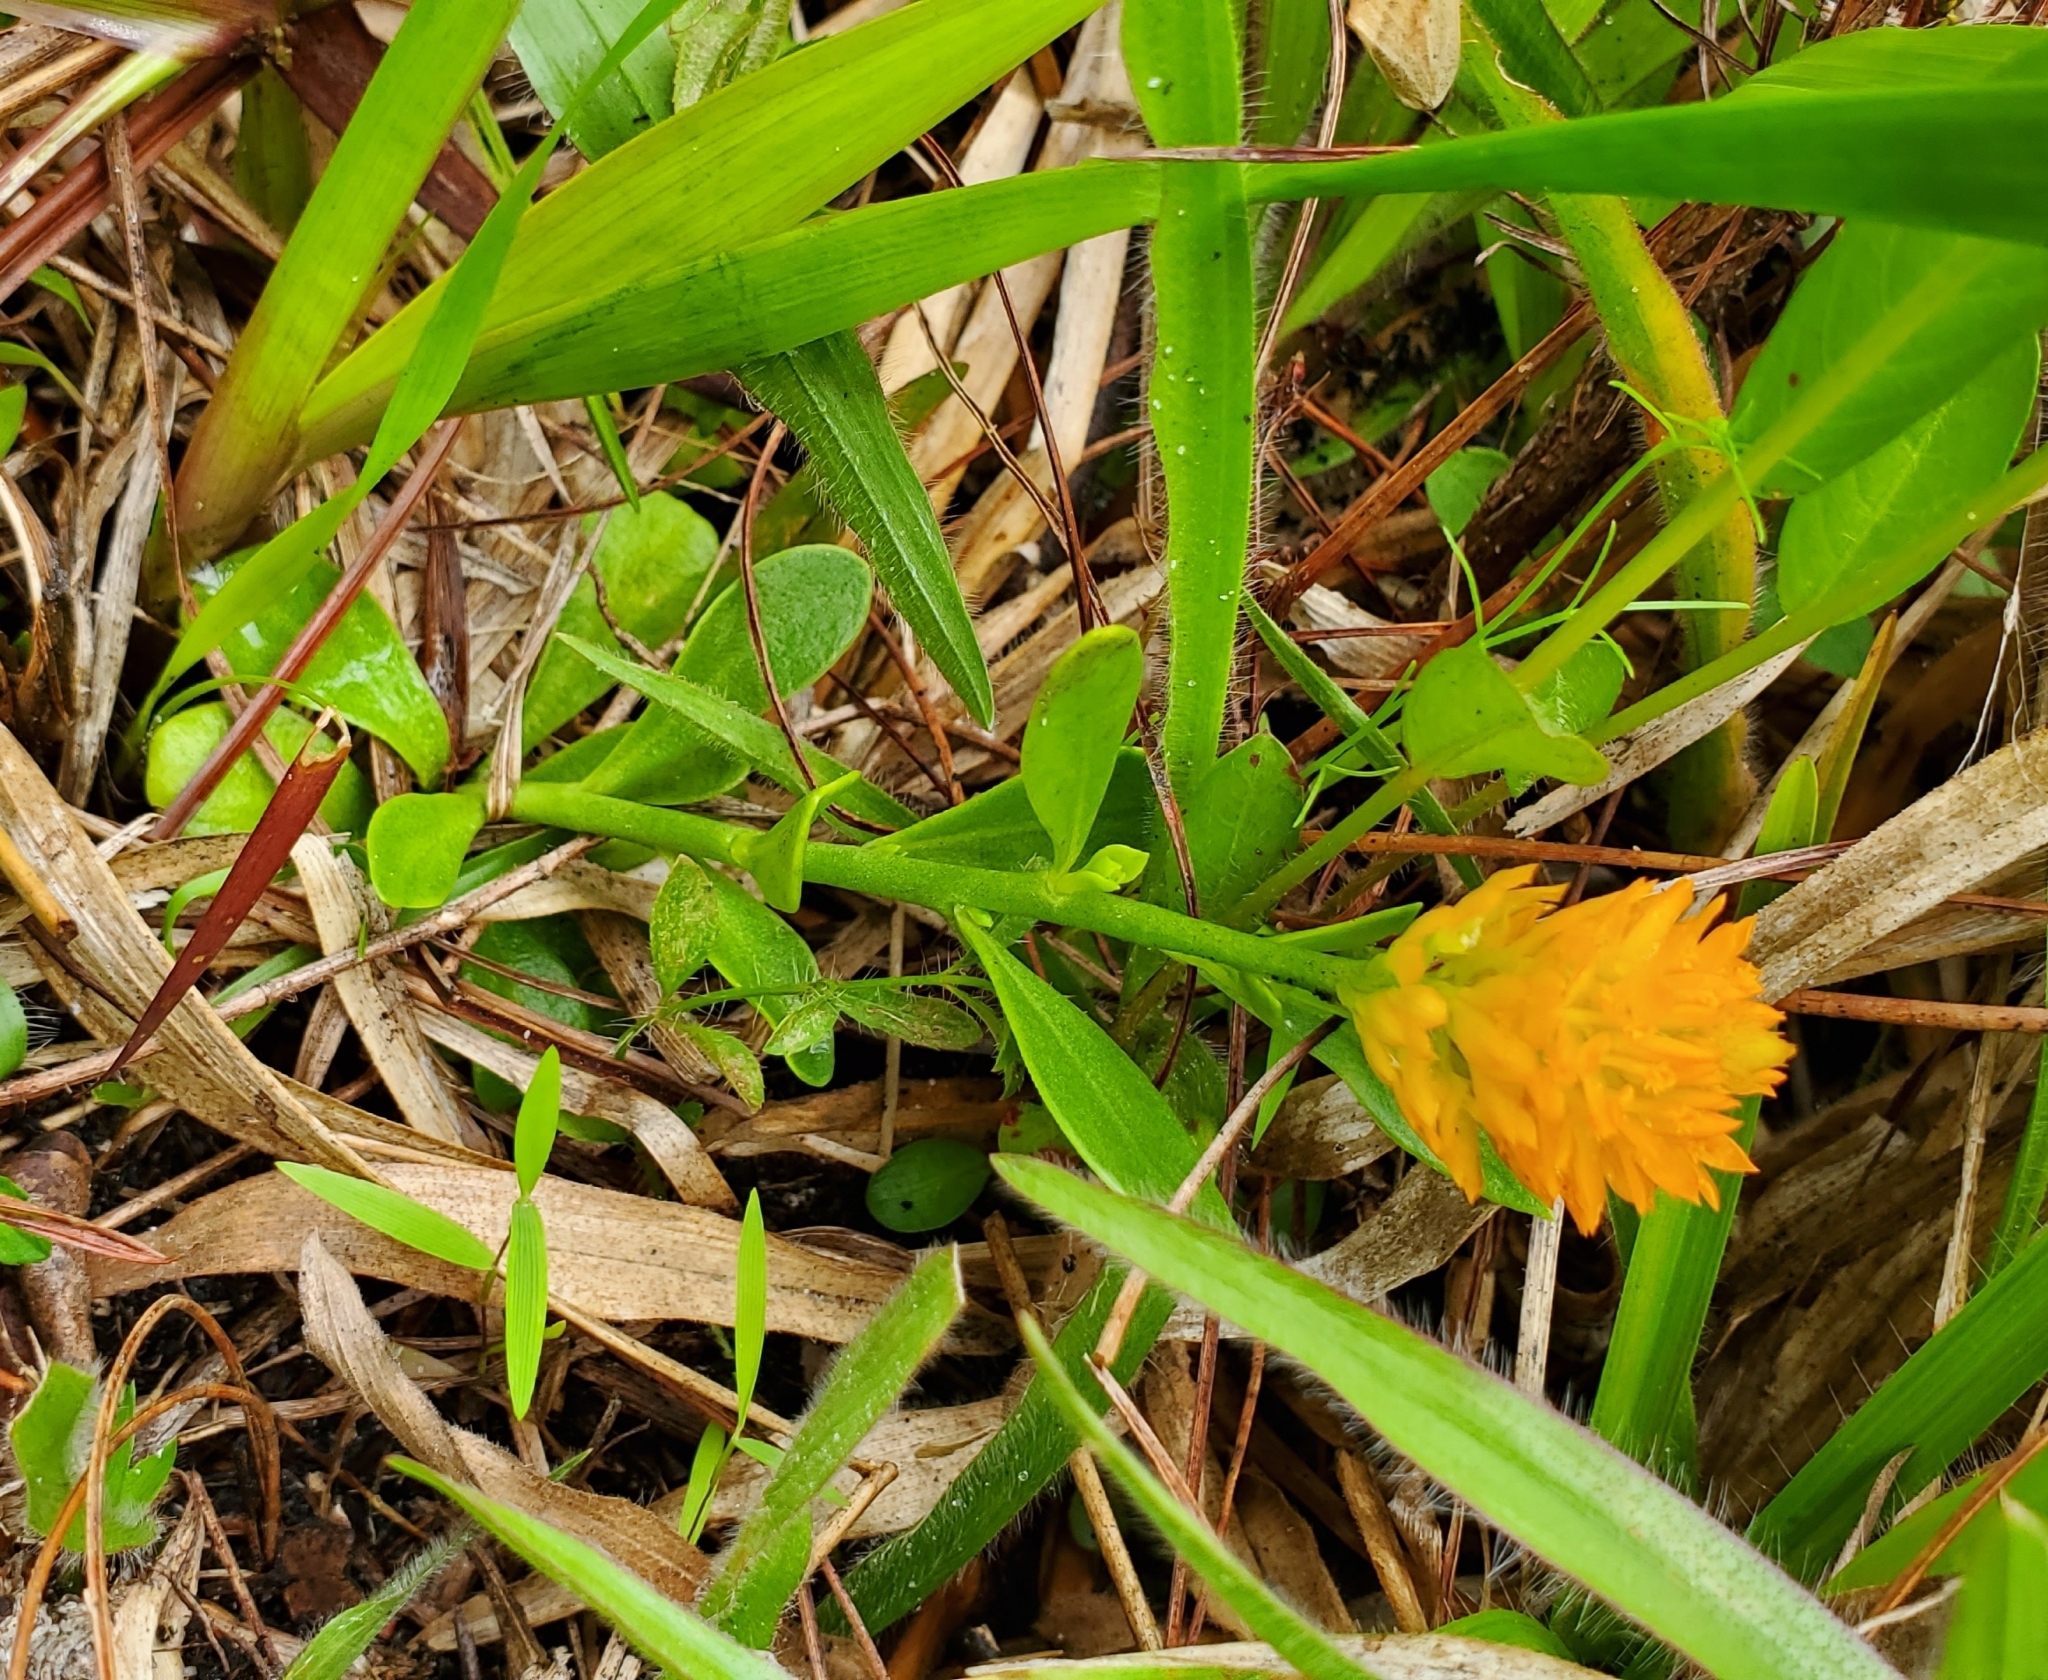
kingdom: Plantae
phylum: Tracheophyta
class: Magnoliopsida
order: Fabales
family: Polygalaceae
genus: Polygala
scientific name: Polygala lutea
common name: Orange milkwort
